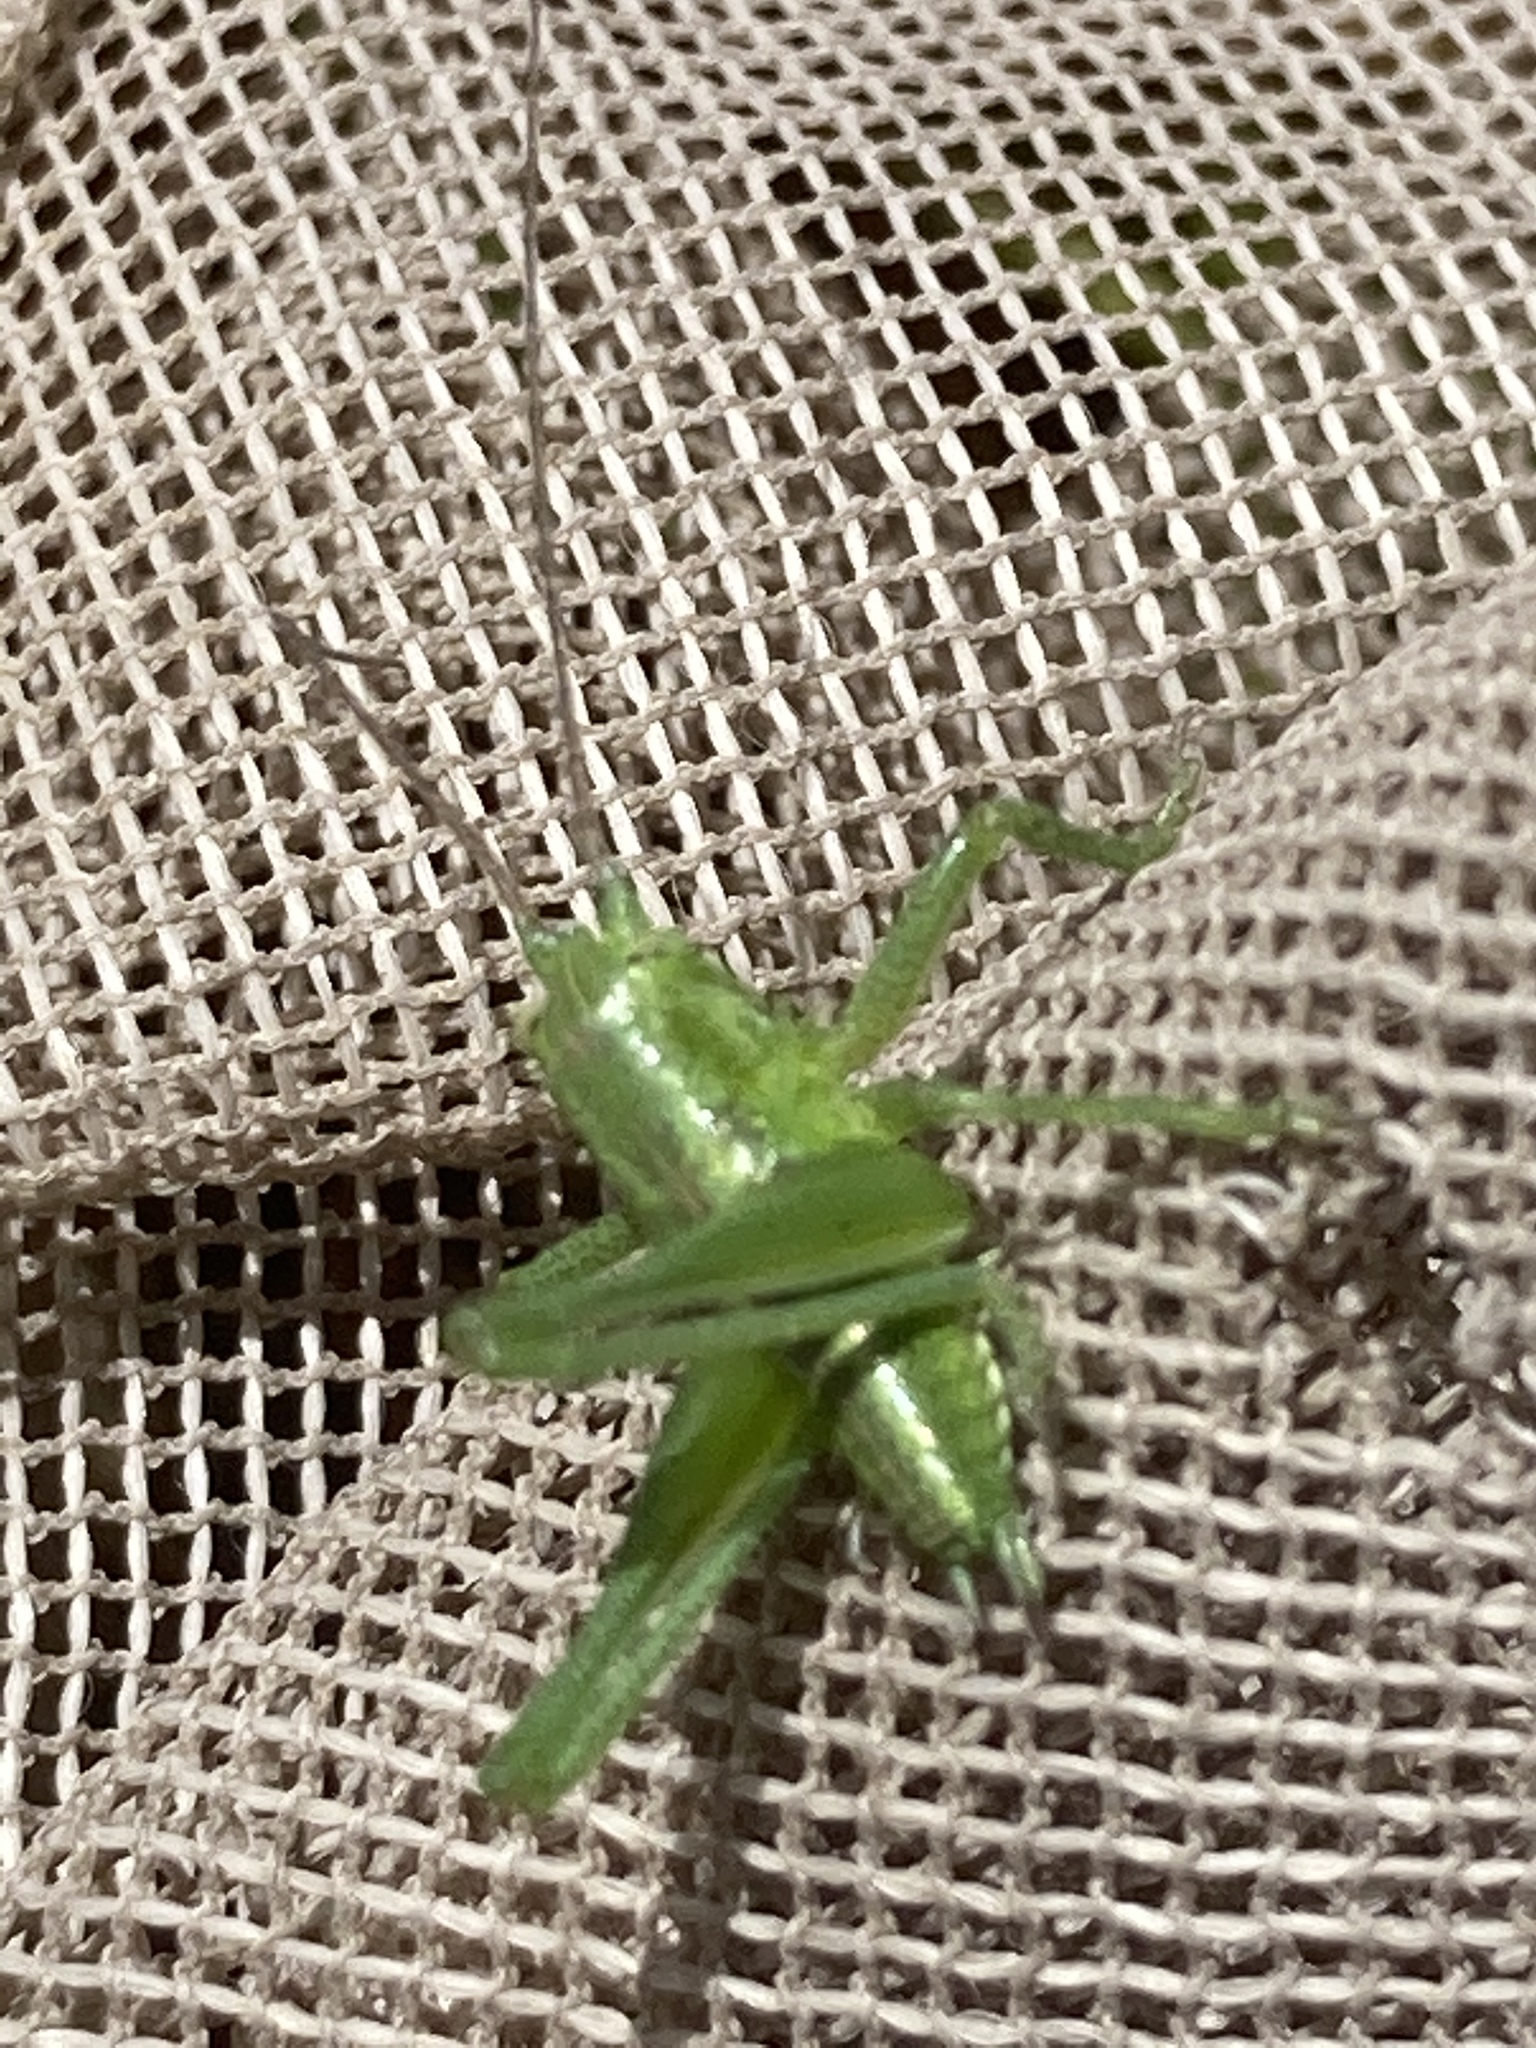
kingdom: Animalia
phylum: Arthropoda
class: Insecta
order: Orthoptera
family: Tettigoniidae
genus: Tettigonia
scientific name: Tettigonia
